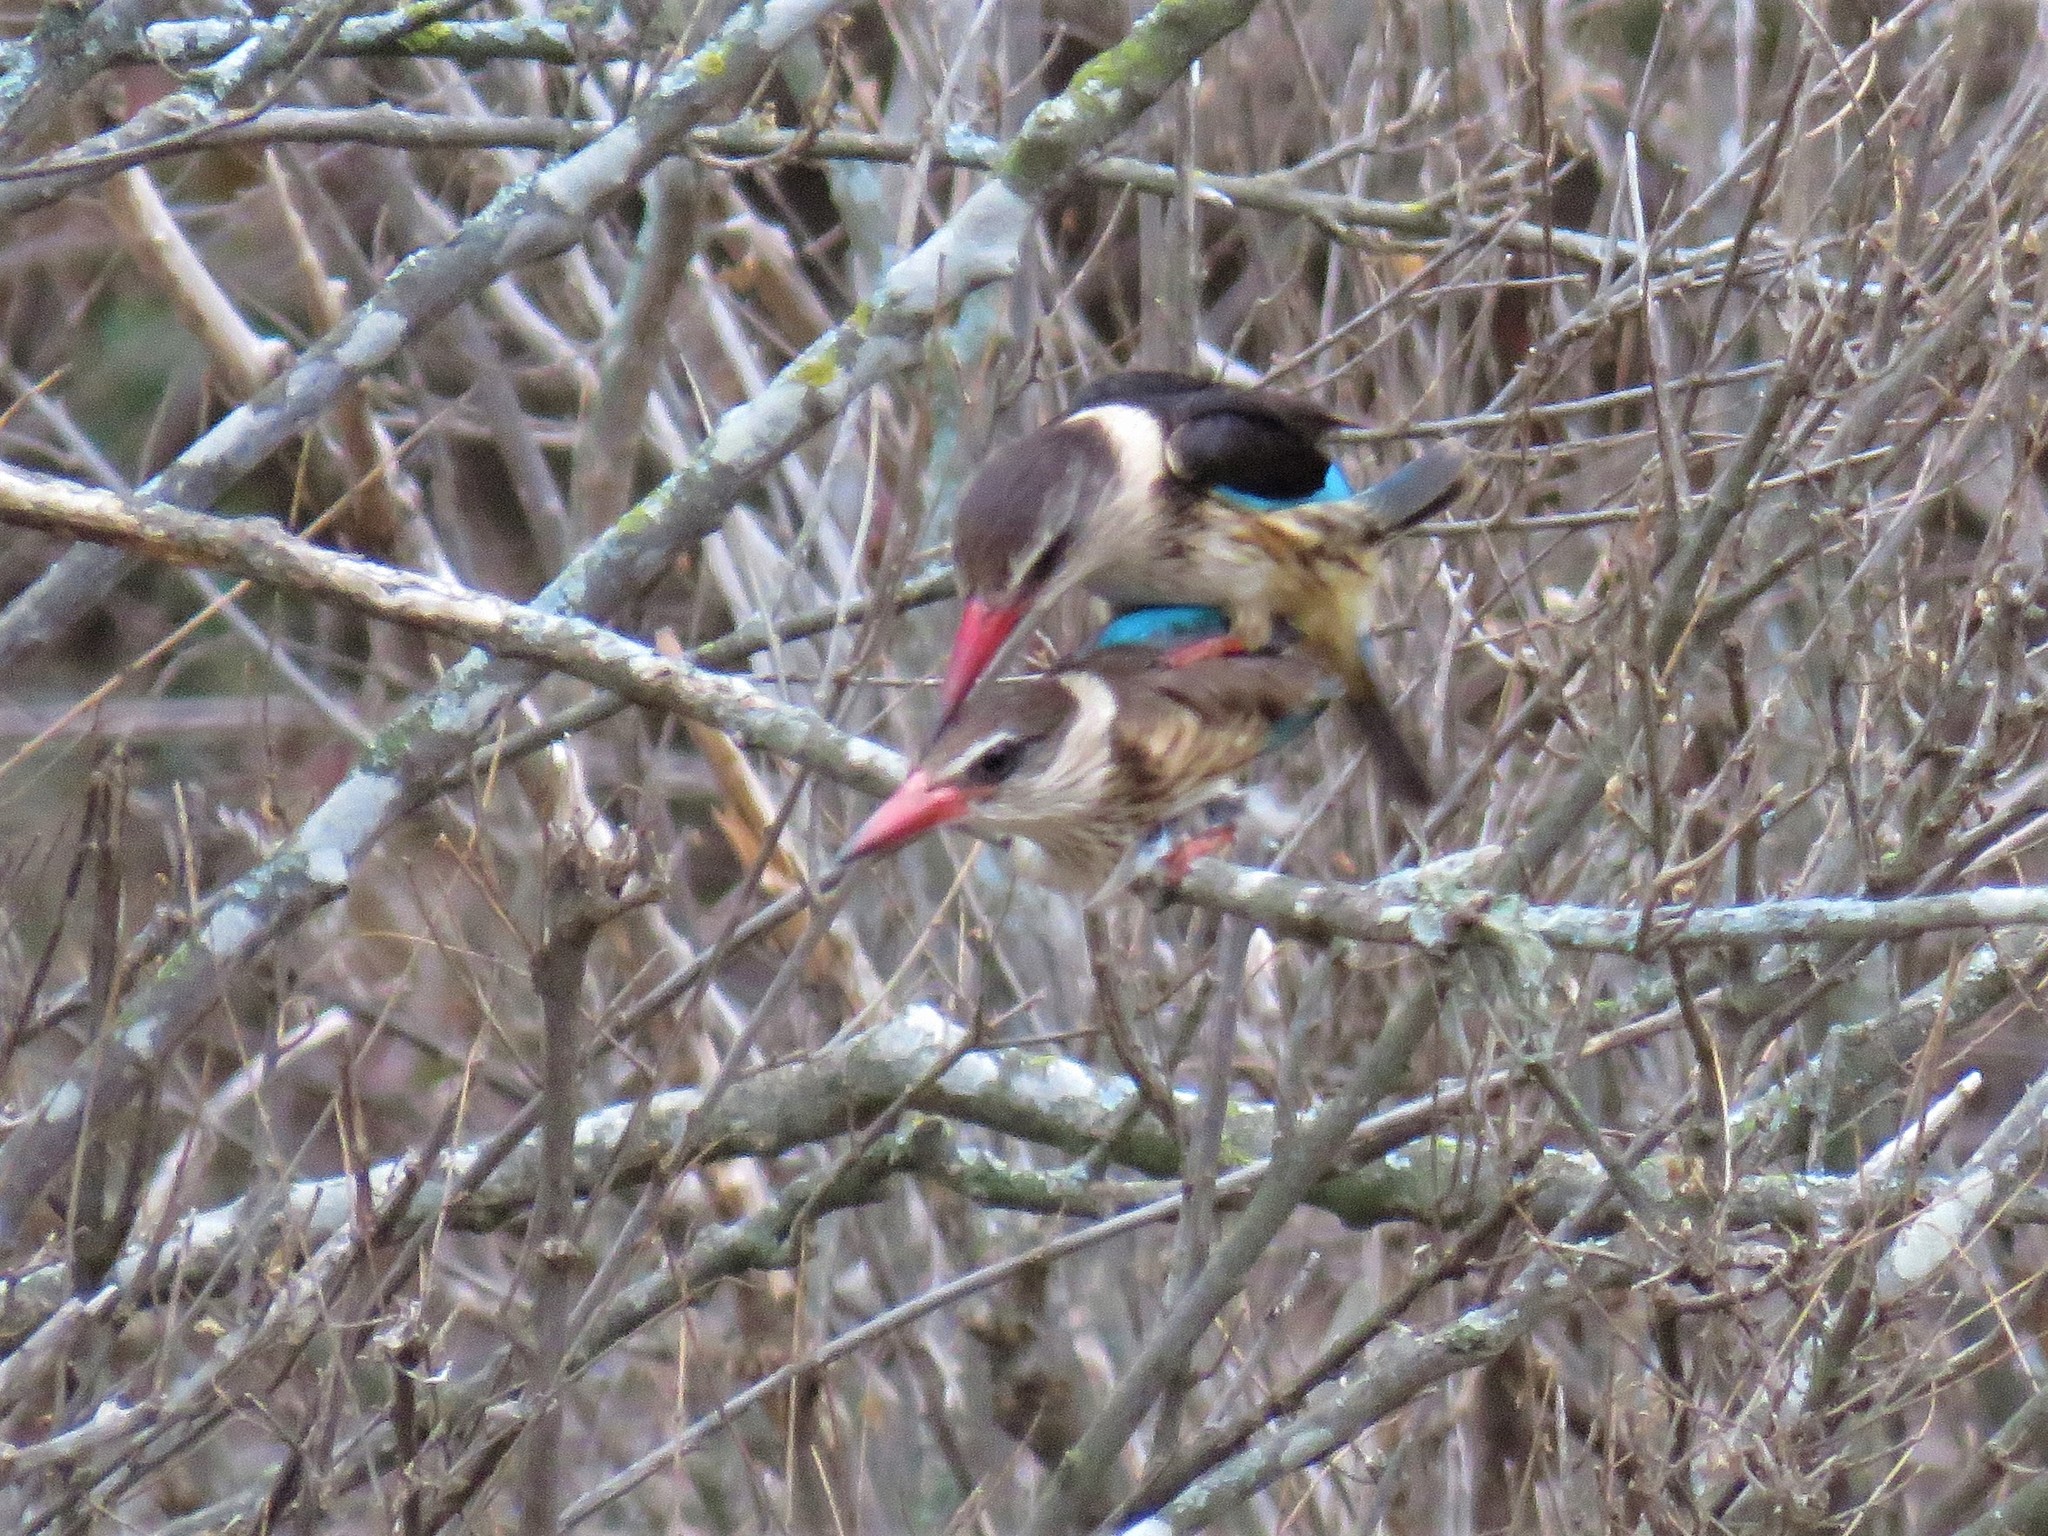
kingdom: Animalia
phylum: Chordata
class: Aves
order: Coraciiformes
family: Alcedinidae
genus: Halcyon
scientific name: Halcyon albiventris
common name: Brown-hooded kingfisher
